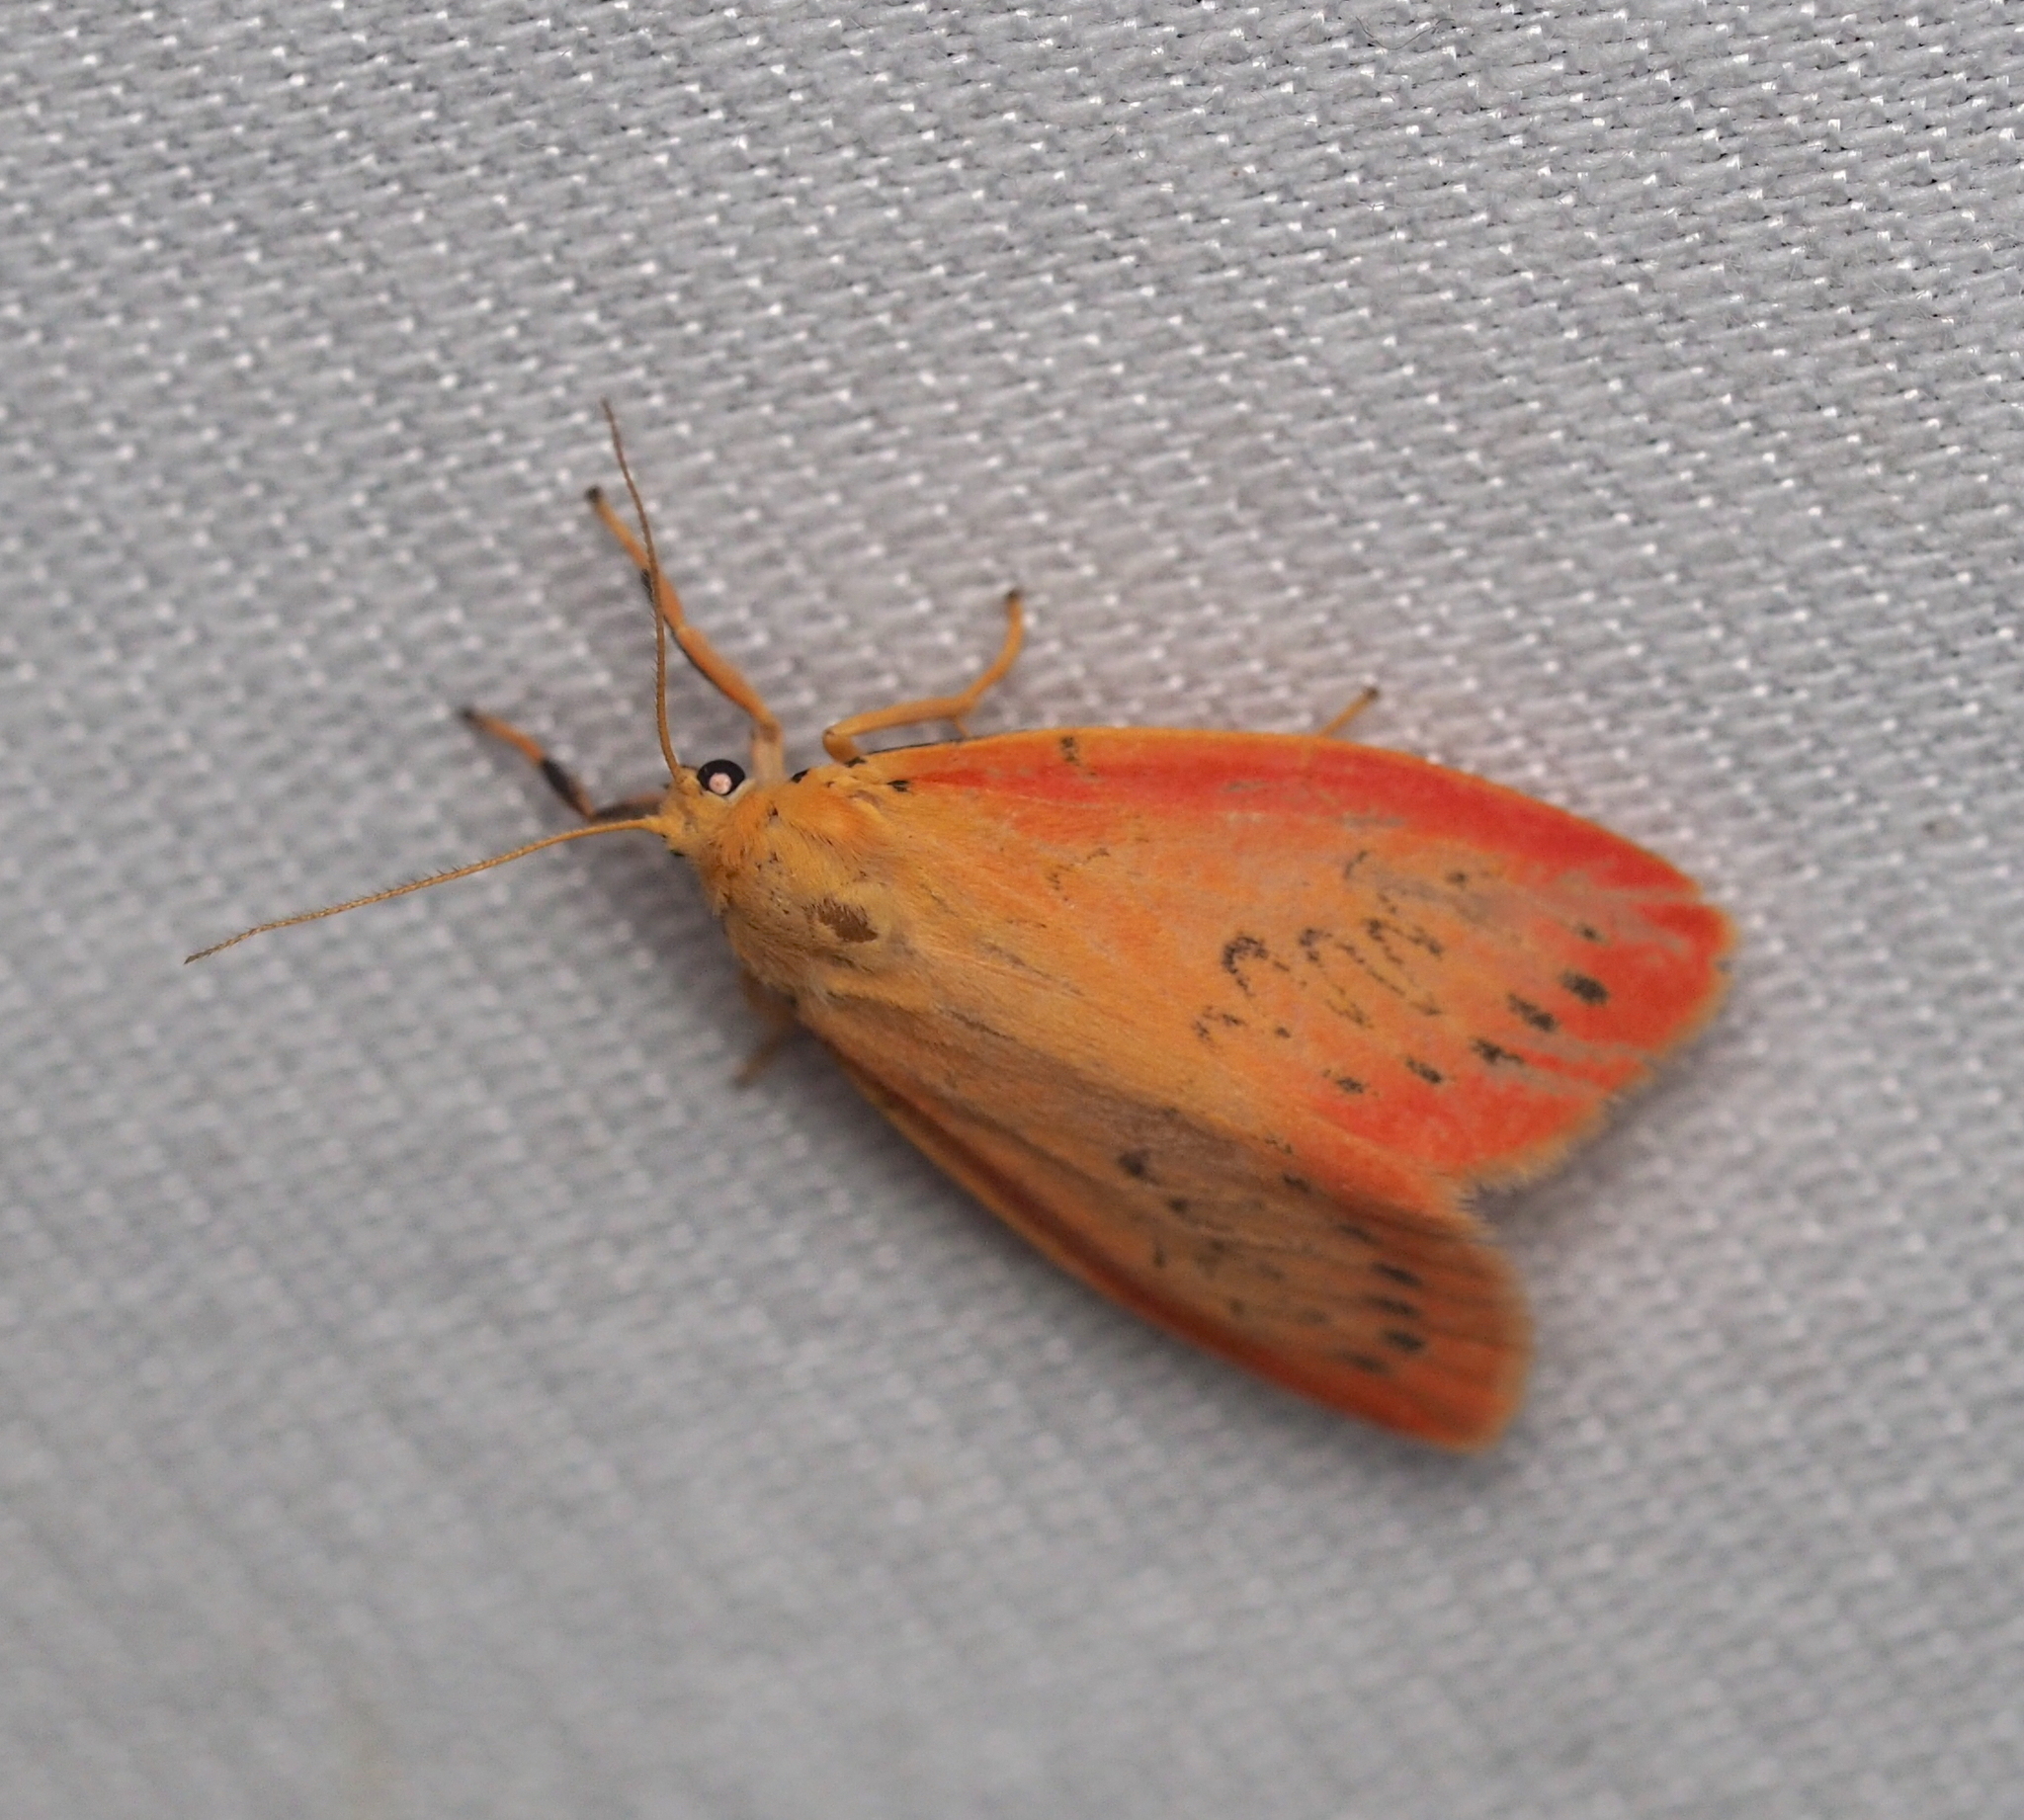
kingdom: Animalia
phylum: Arthropoda
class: Insecta
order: Lepidoptera
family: Erebidae
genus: Miltochrista
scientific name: Miltochrista miniata
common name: Rosy footman
